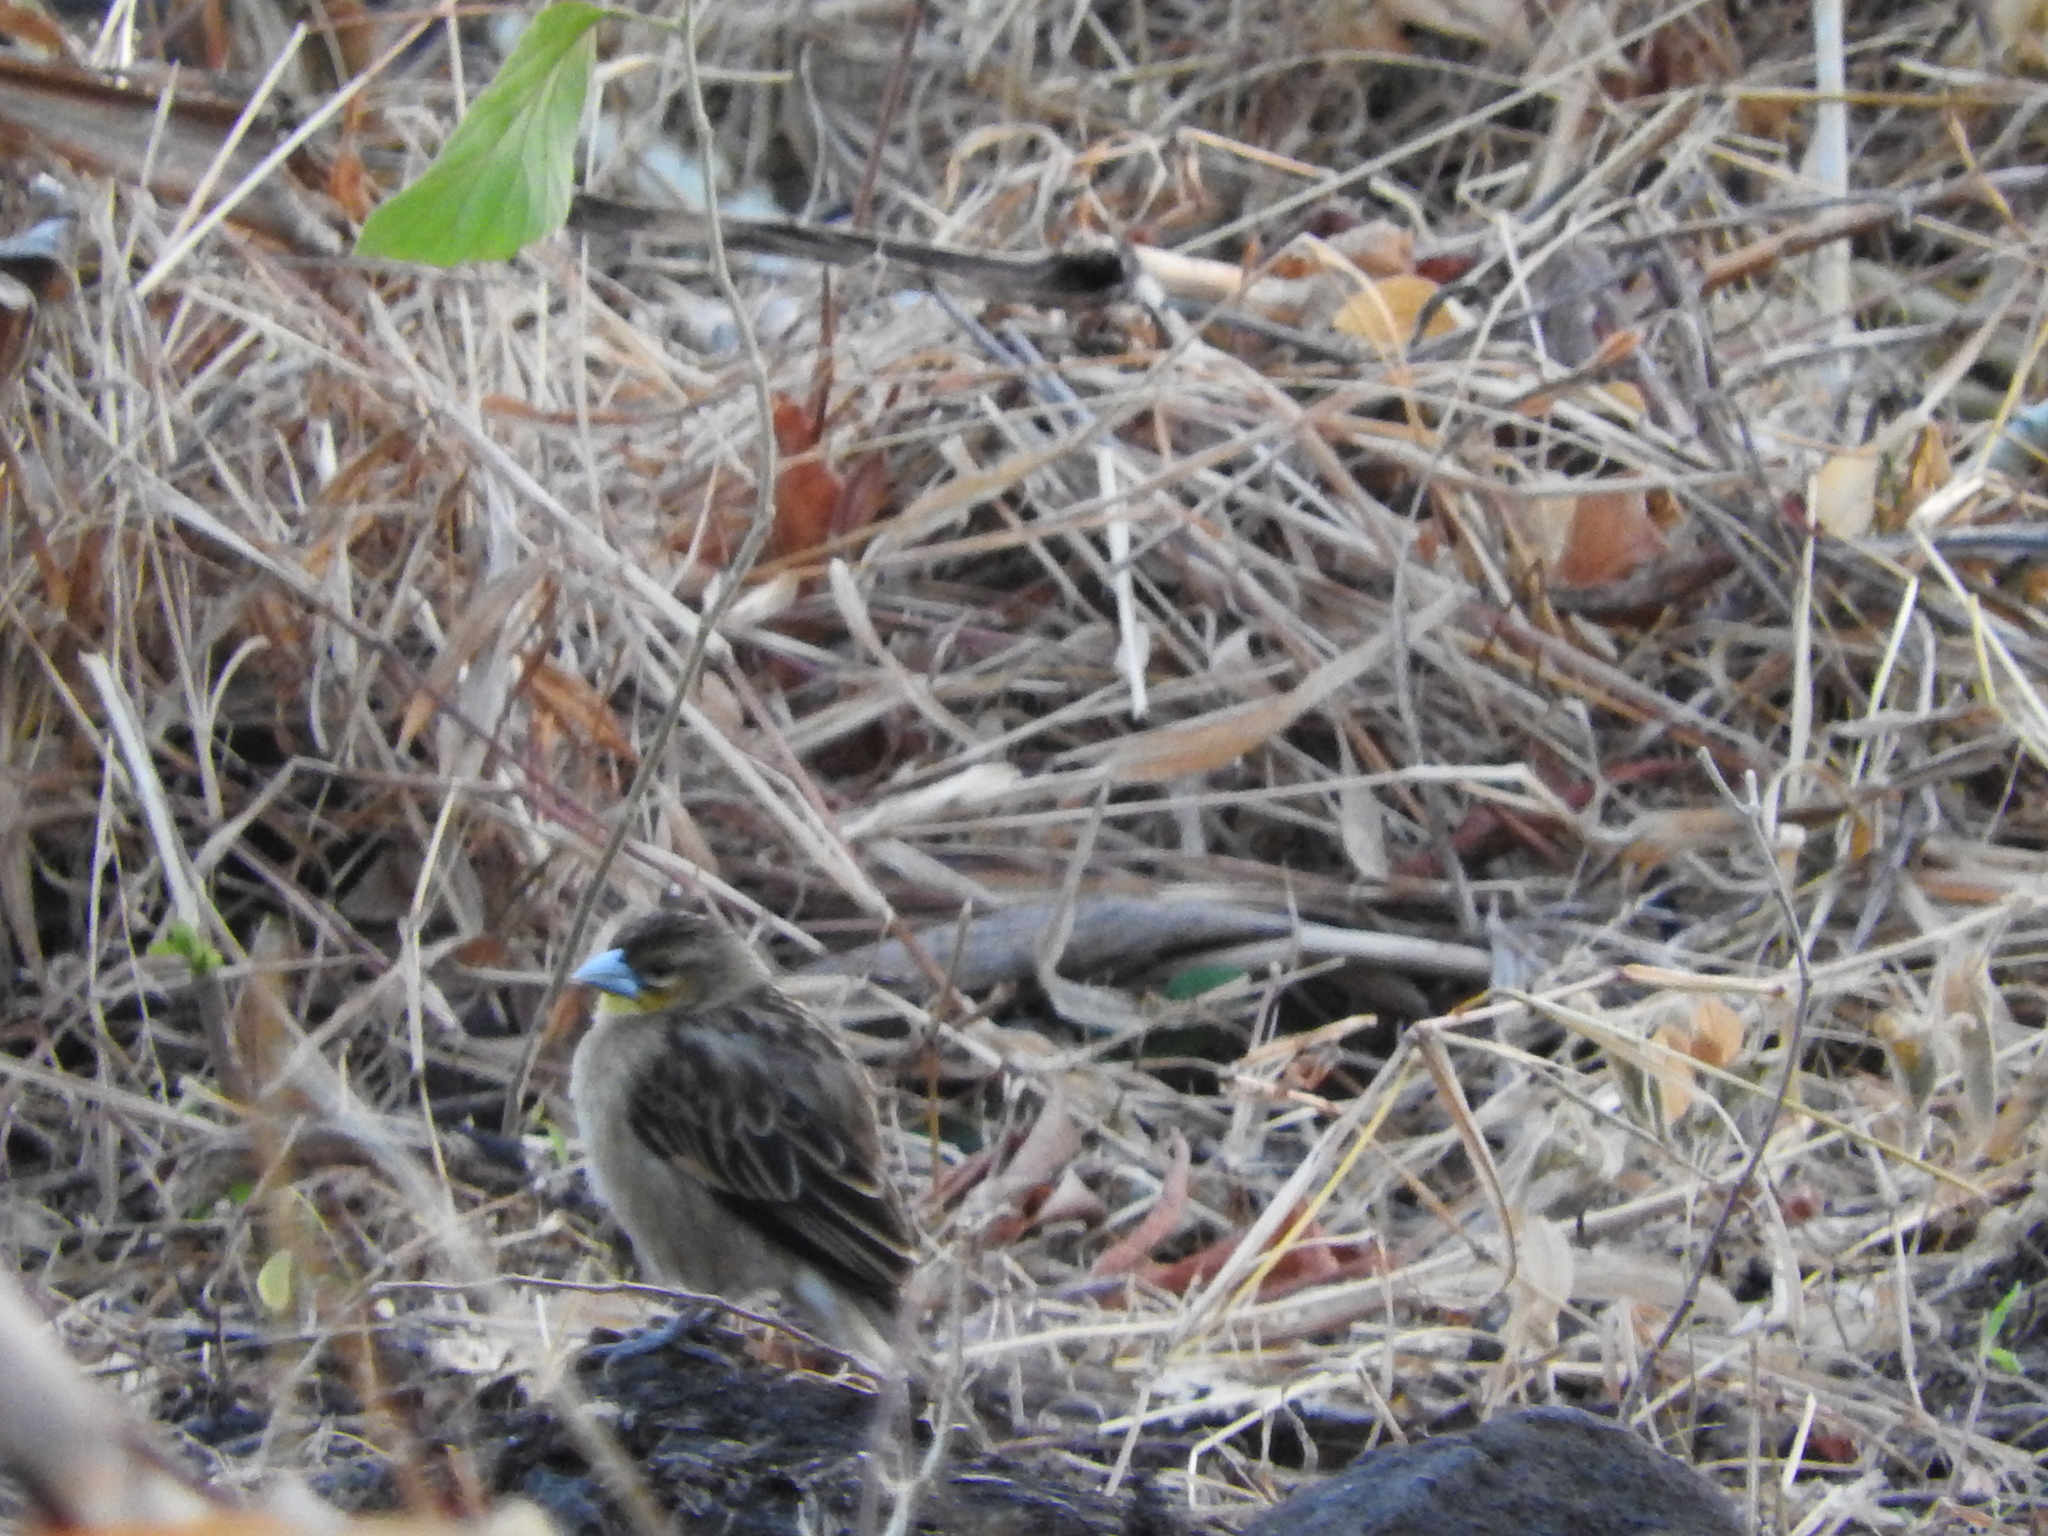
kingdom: Animalia
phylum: Chordata
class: Aves
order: Passeriformes
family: Ploceidae
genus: Euplectes
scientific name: Euplectes albonotatus
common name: White-winged widowbird
